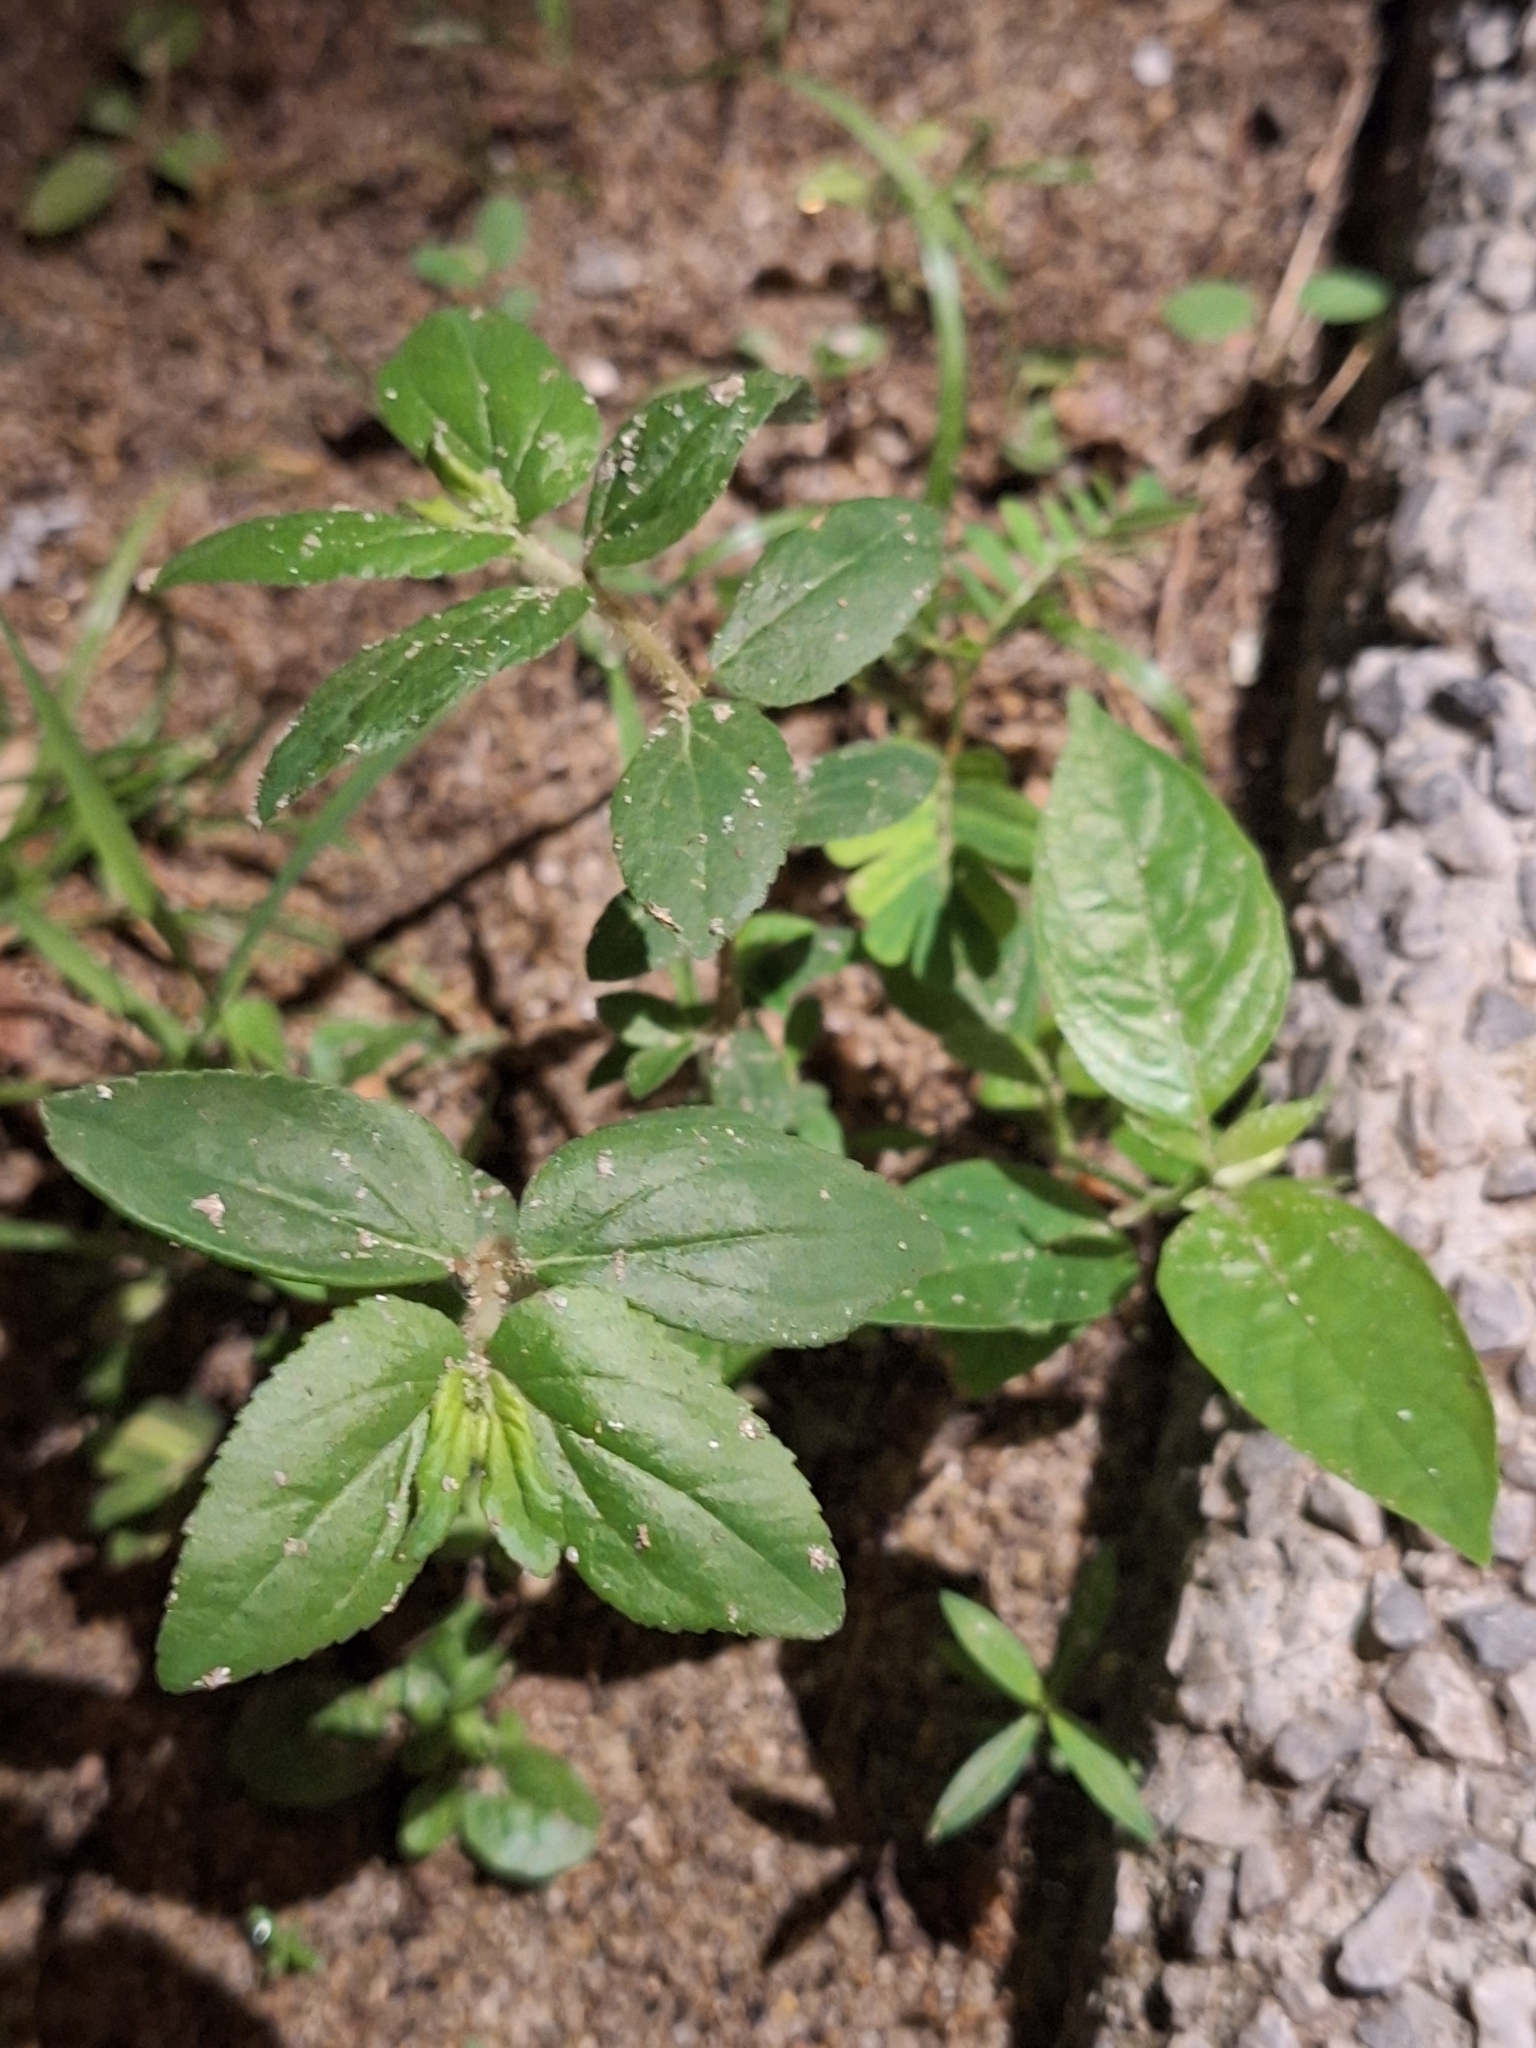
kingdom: Plantae
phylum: Tracheophyta
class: Magnoliopsida
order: Malpighiales
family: Euphorbiaceae
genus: Euphorbia
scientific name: Euphorbia hirta
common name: Pillpod sandmat
